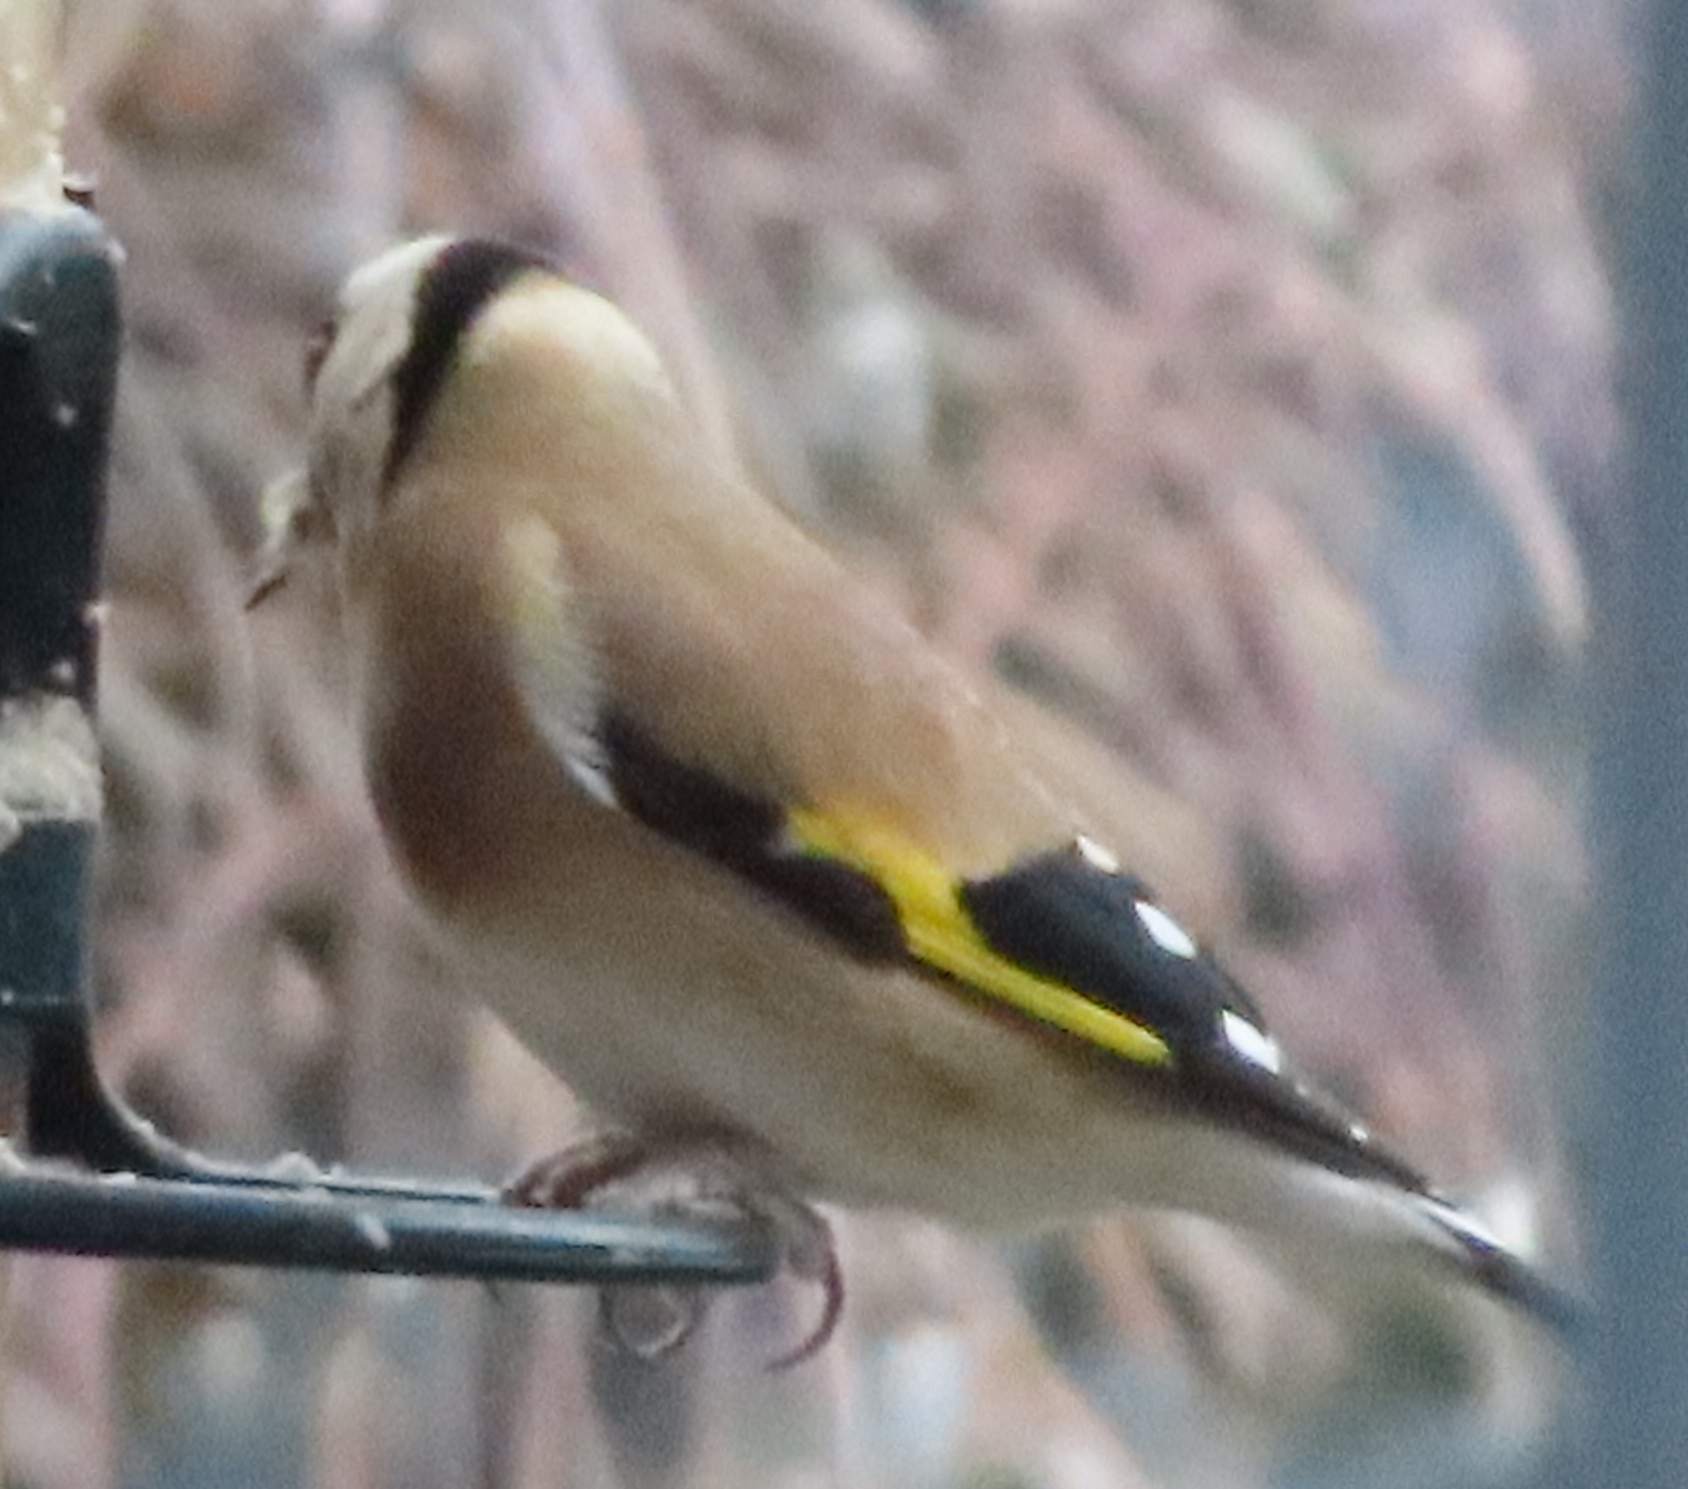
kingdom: Animalia
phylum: Chordata
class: Aves
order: Passeriformes
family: Fringillidae
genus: Carduelis
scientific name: Carduelis carduelis
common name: European goldfinch
